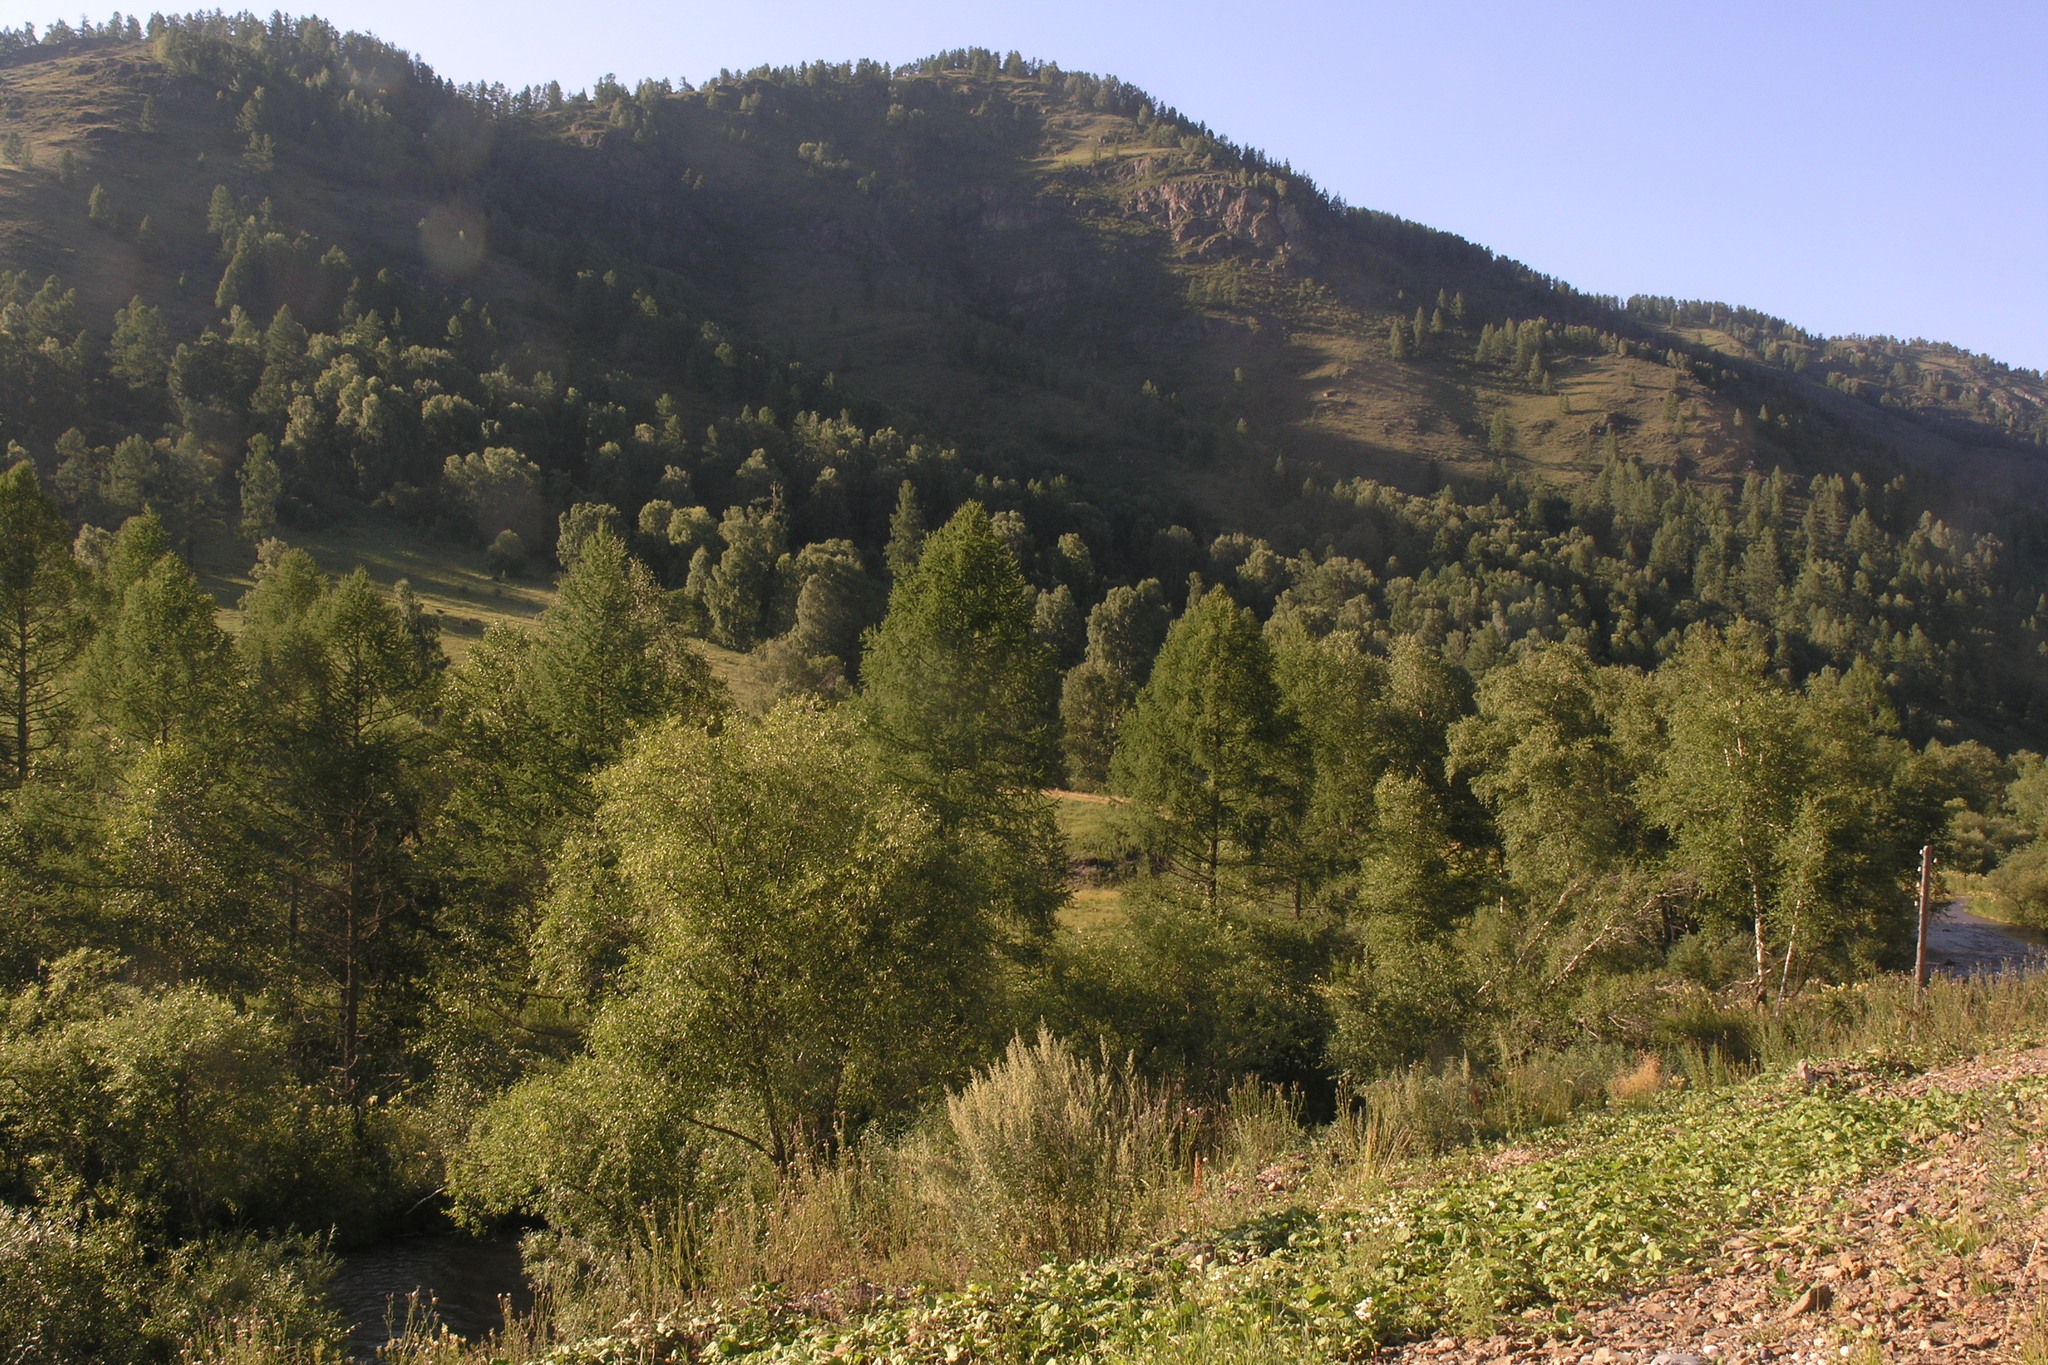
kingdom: Plantae
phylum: Tracheophyta
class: Magnoliopsida
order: Fagales
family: Betulaceae
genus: Betula
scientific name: Betula pendula
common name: Silver birch
